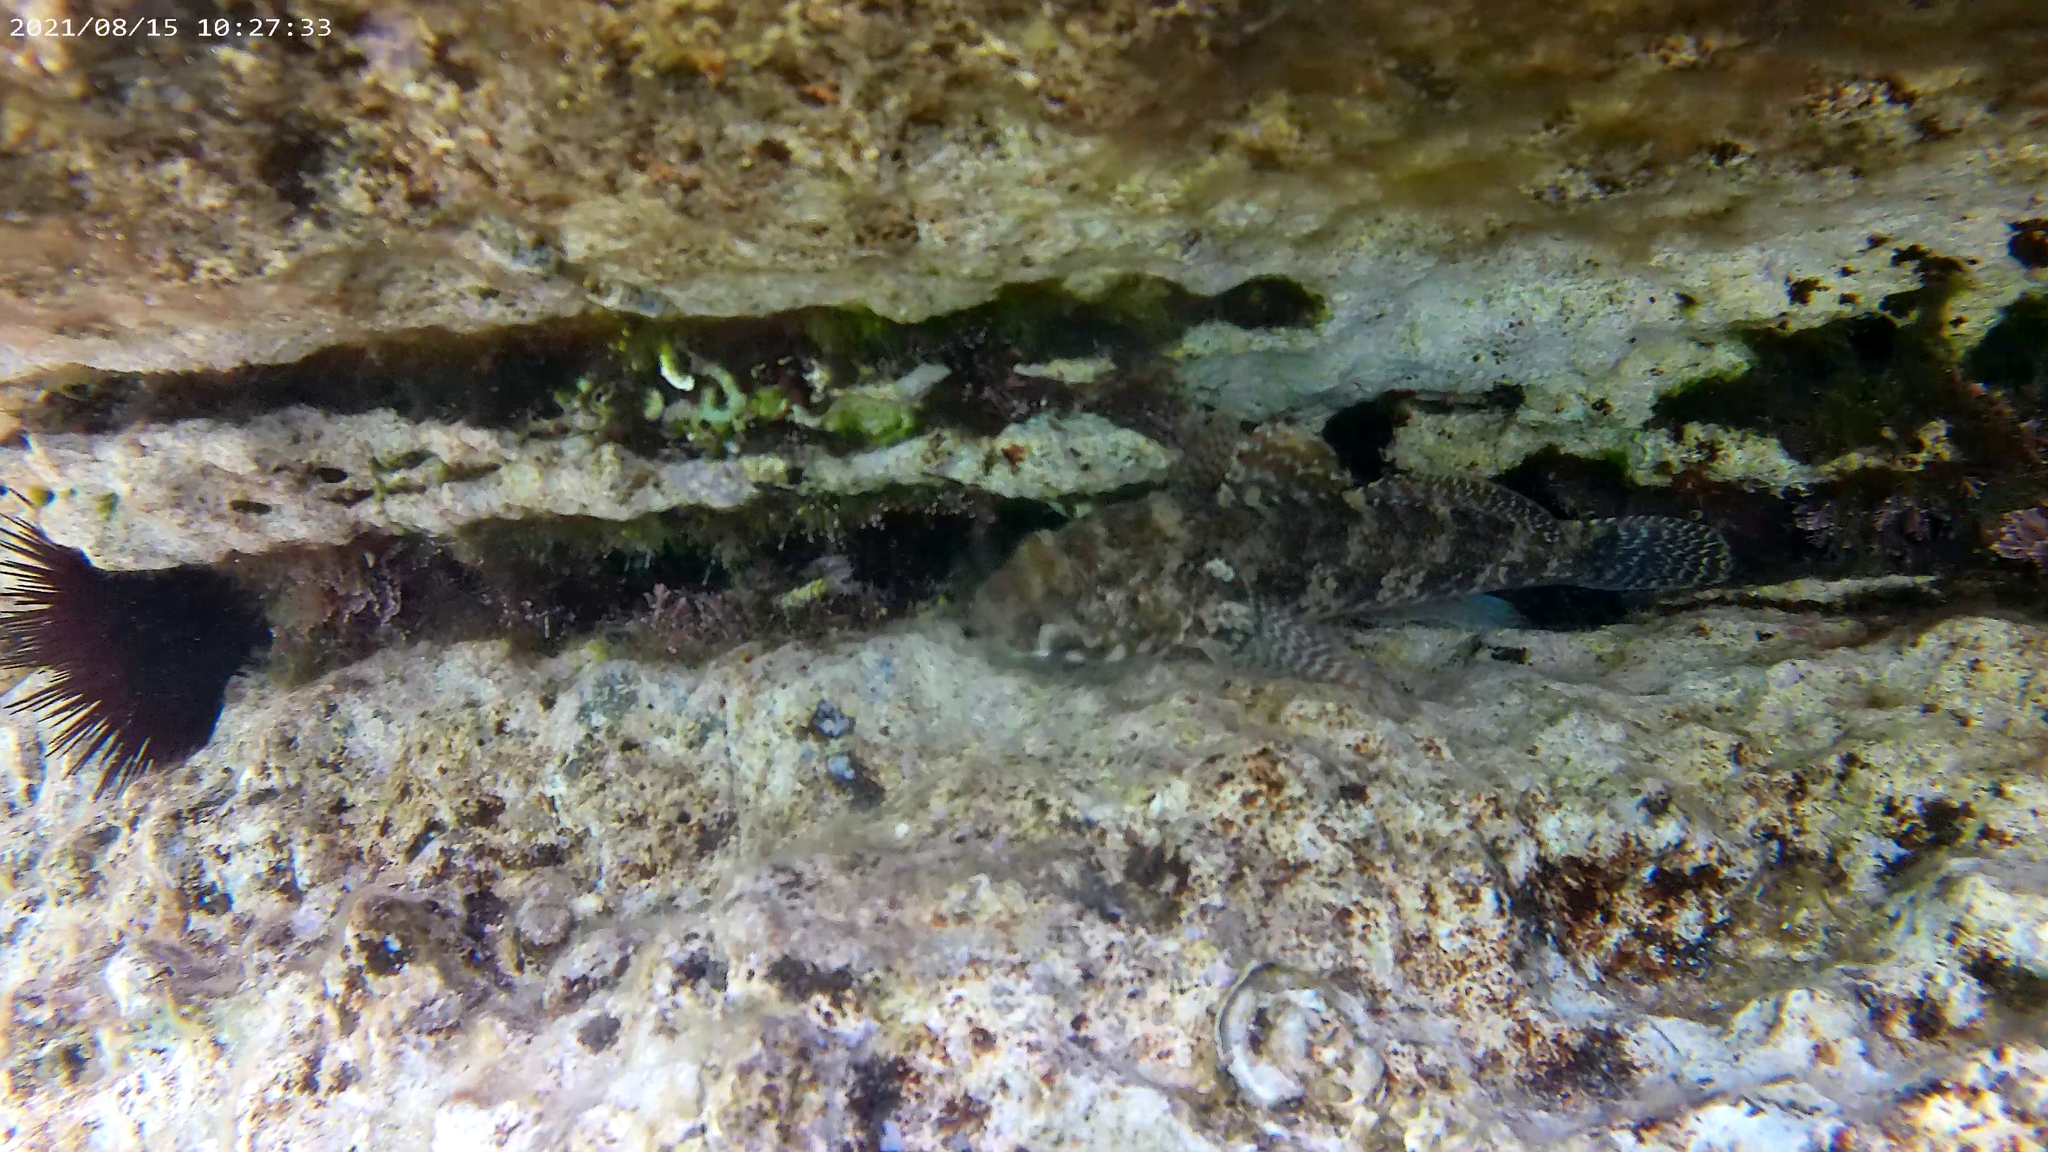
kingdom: Animalia
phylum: Chordata
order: Perciformes
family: Gobiidae
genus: Gobius
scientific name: Gobius paganellus
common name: Rock goby
